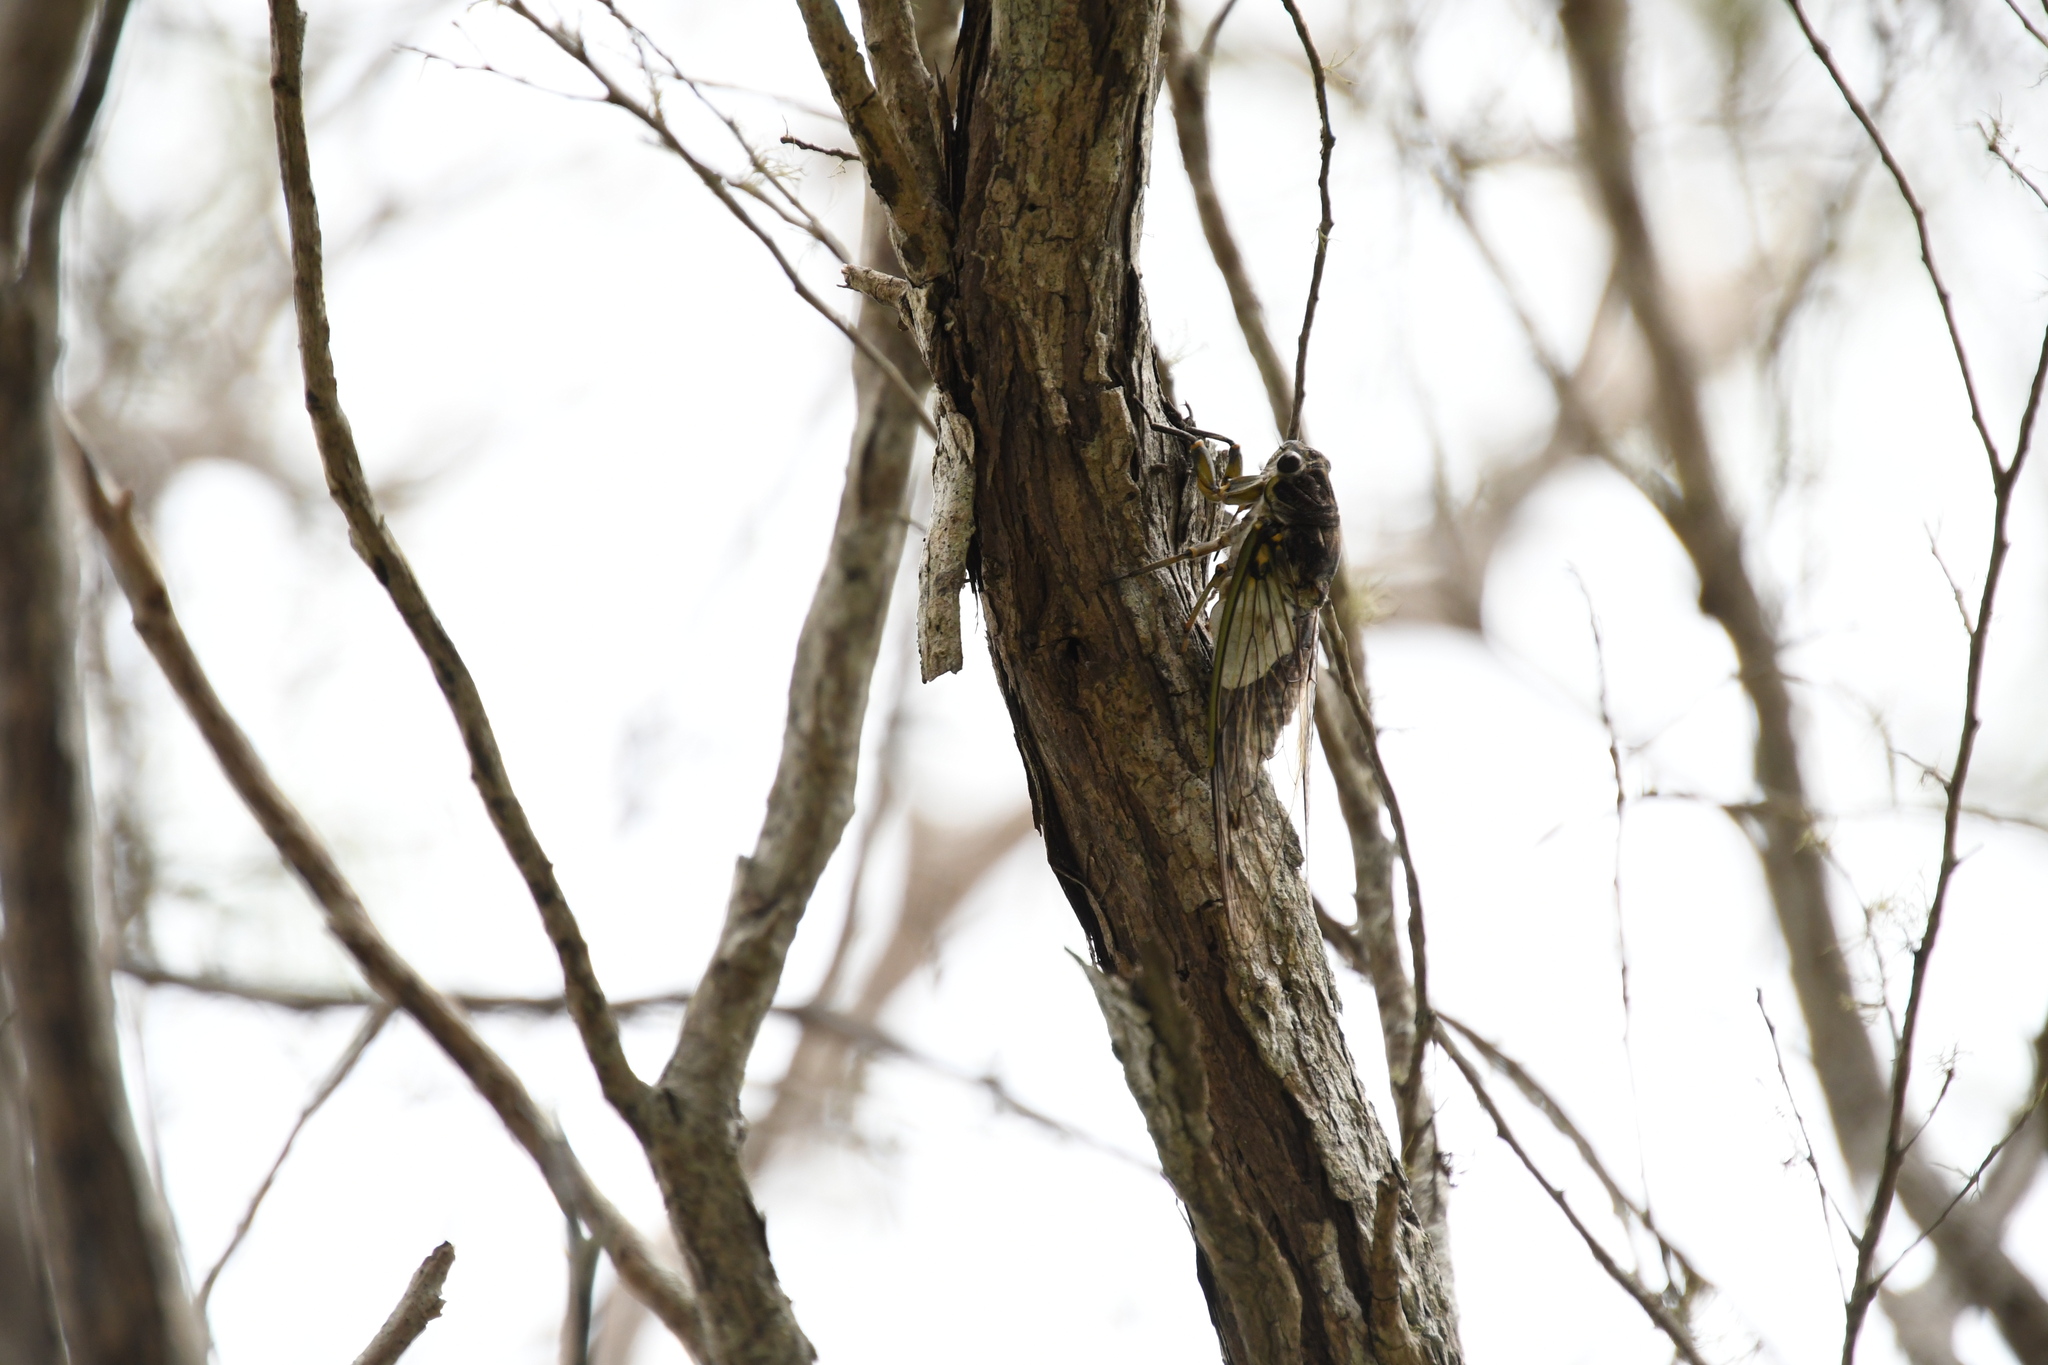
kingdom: Animalia
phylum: Arthropoda
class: Insecta
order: Hemiptera
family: Cicadidae
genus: Arunta
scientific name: Arunta perulata
